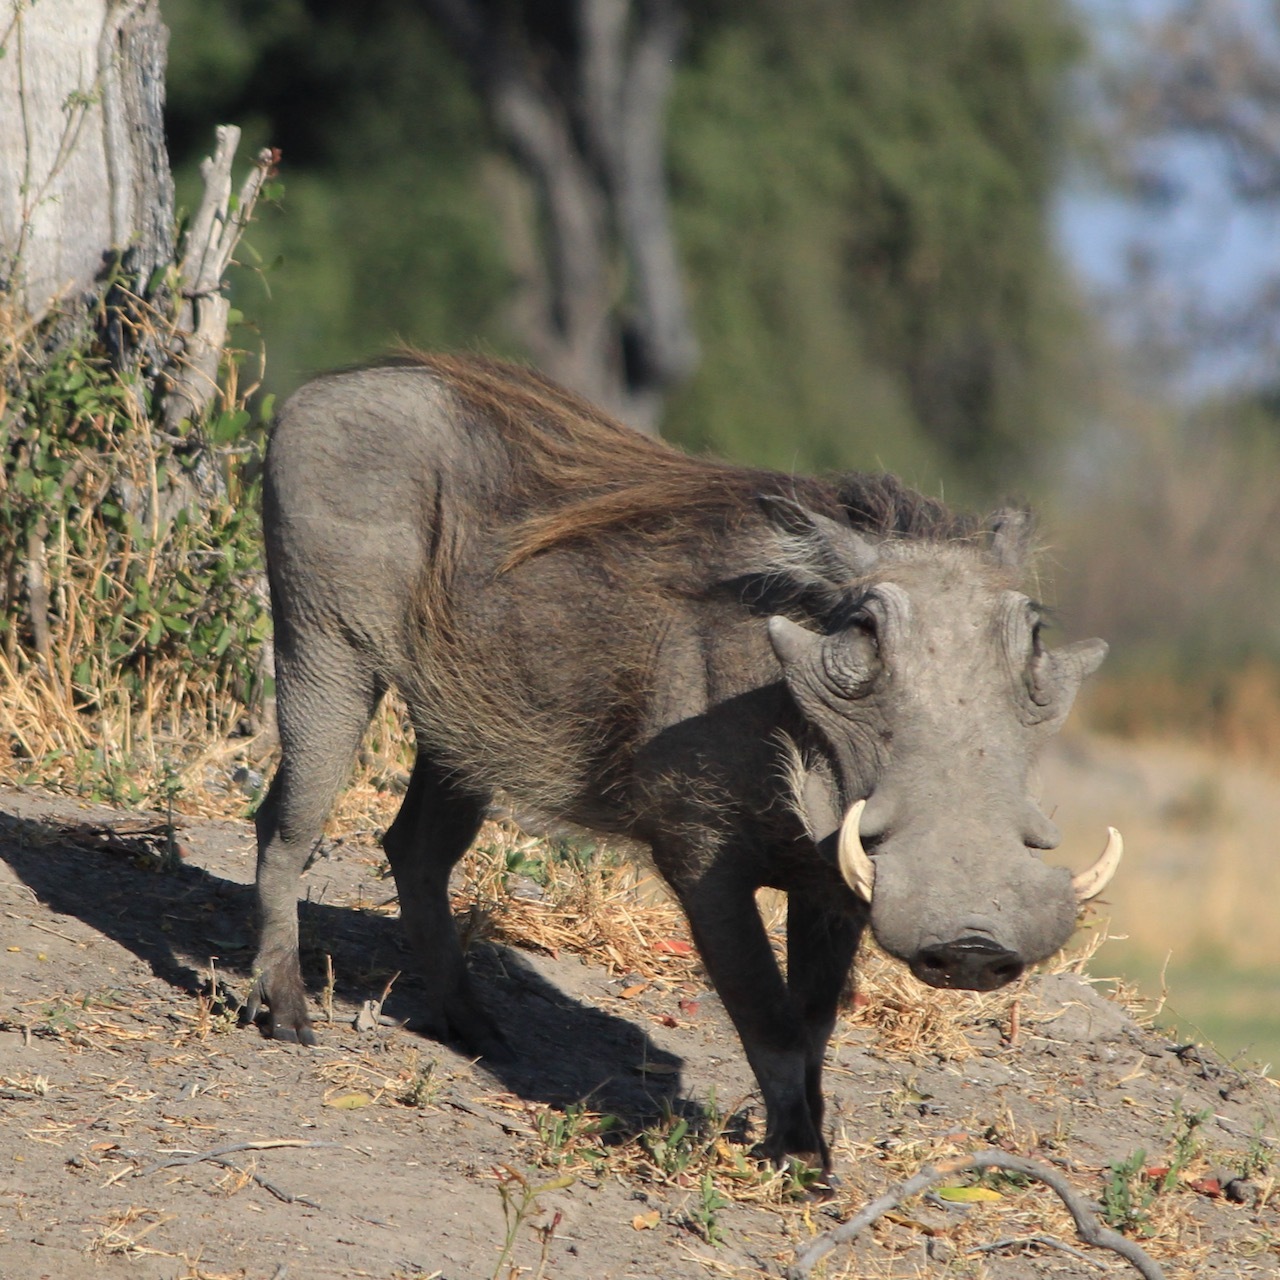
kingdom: Animalia
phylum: Chordata
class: Mammalia
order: Artiodactyla
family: Suidae
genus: Phacochoerus
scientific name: Phacochoerus africanus
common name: Common warthog
